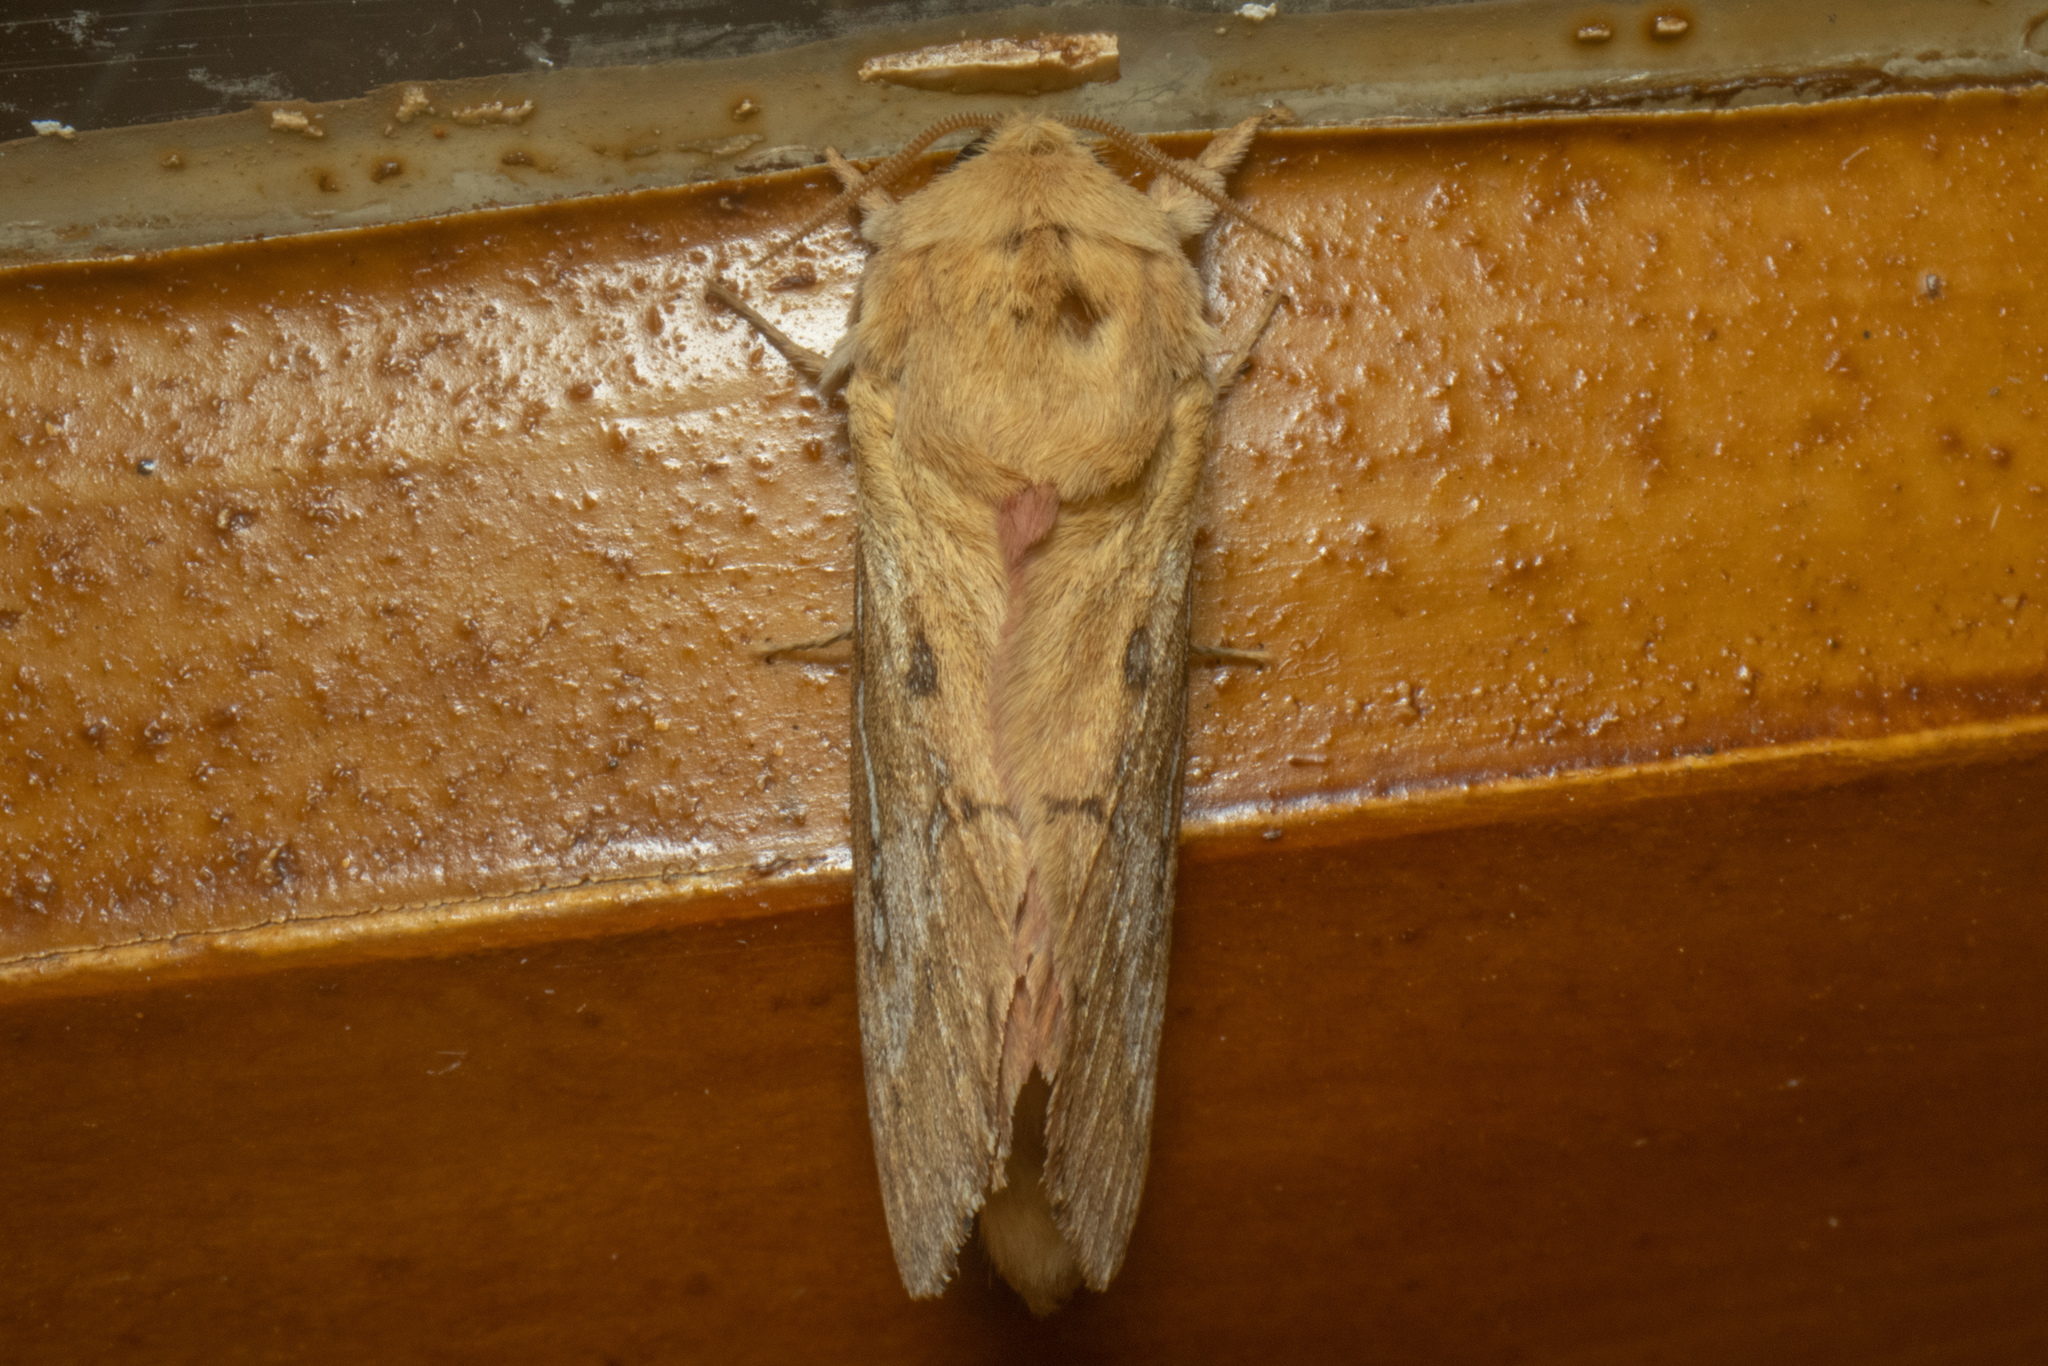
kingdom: Animalia
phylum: Arthropoda
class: Insecta
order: Lepidoptera
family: Hepialidae
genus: Wiseana
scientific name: Wiseana signata
